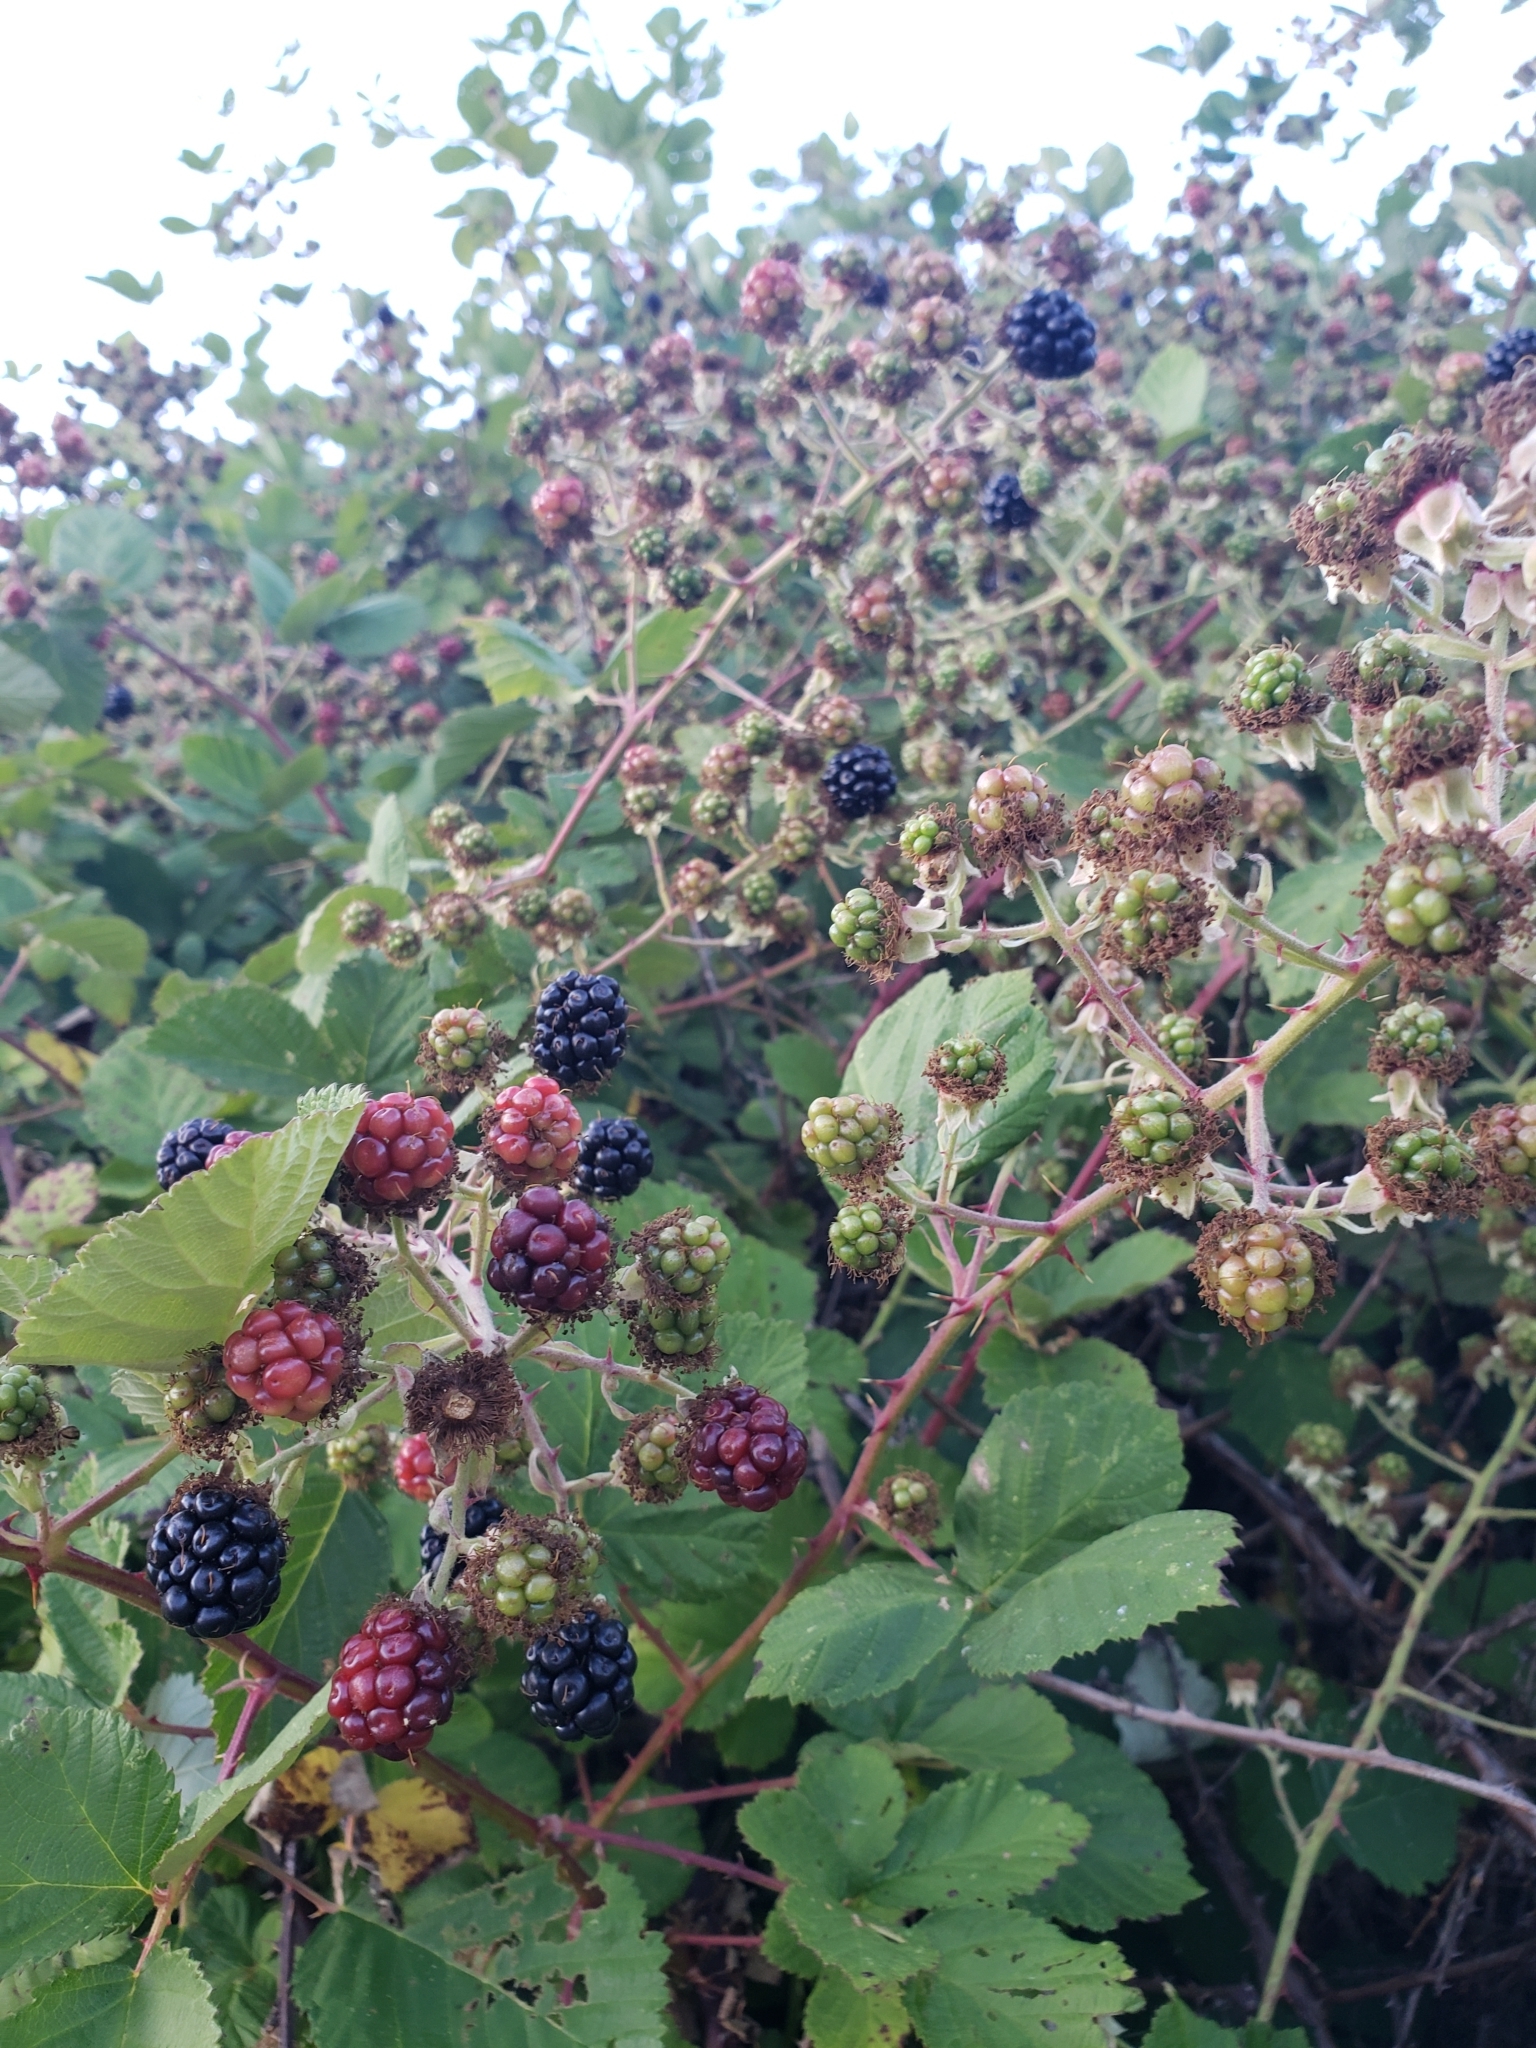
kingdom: Plantae
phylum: Tracheophyta
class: Magnoliopsida
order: Rosales
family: Rosaceae
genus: Rubus
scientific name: Rubus armeniacus
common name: Himalayan blackberry
